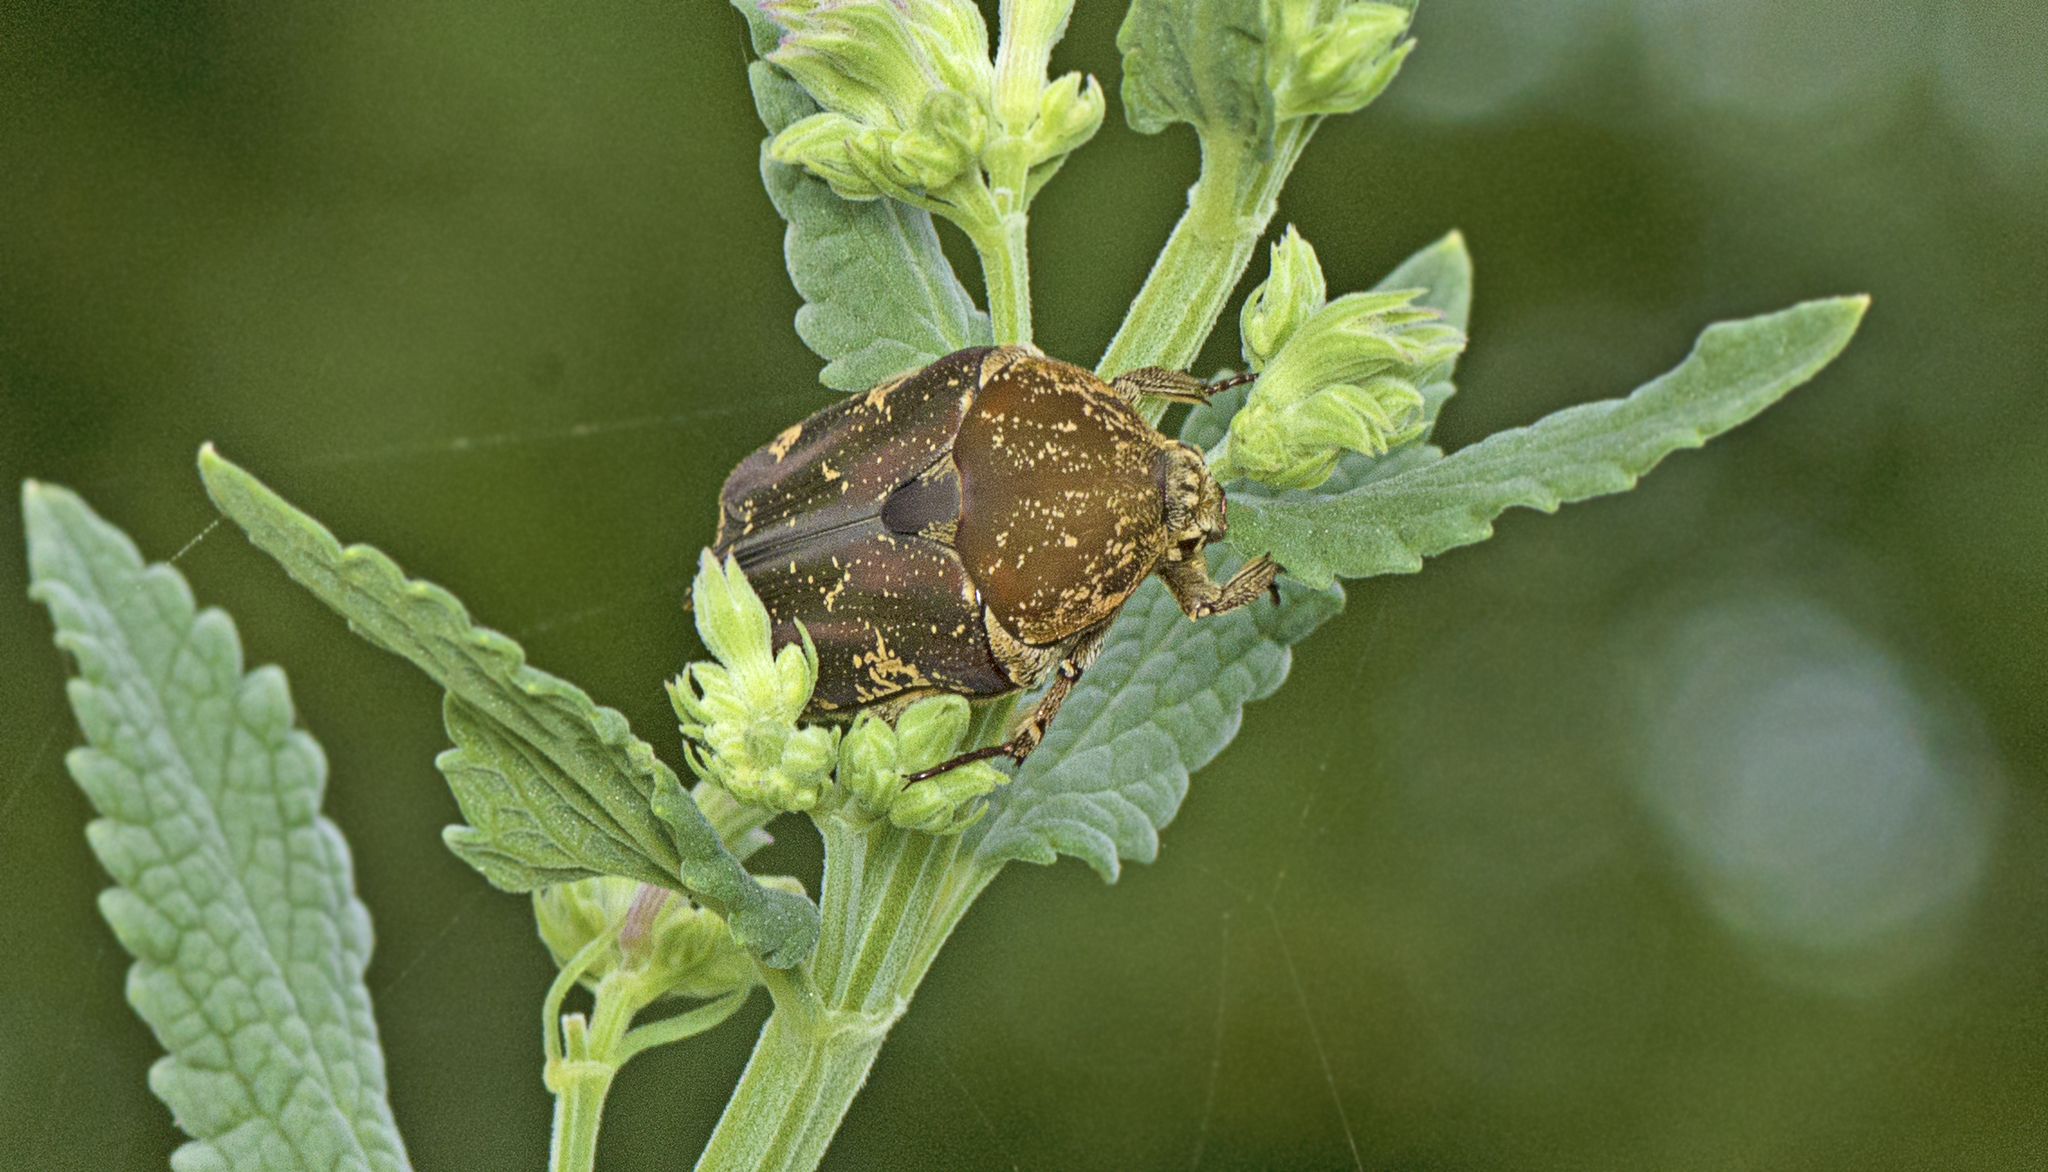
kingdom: Animalia
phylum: Arthropoda
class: Insecta
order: Coleoptera
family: Scarabaeidae
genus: Protaetia
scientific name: Protaetia fusca
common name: Mango flower beetle
